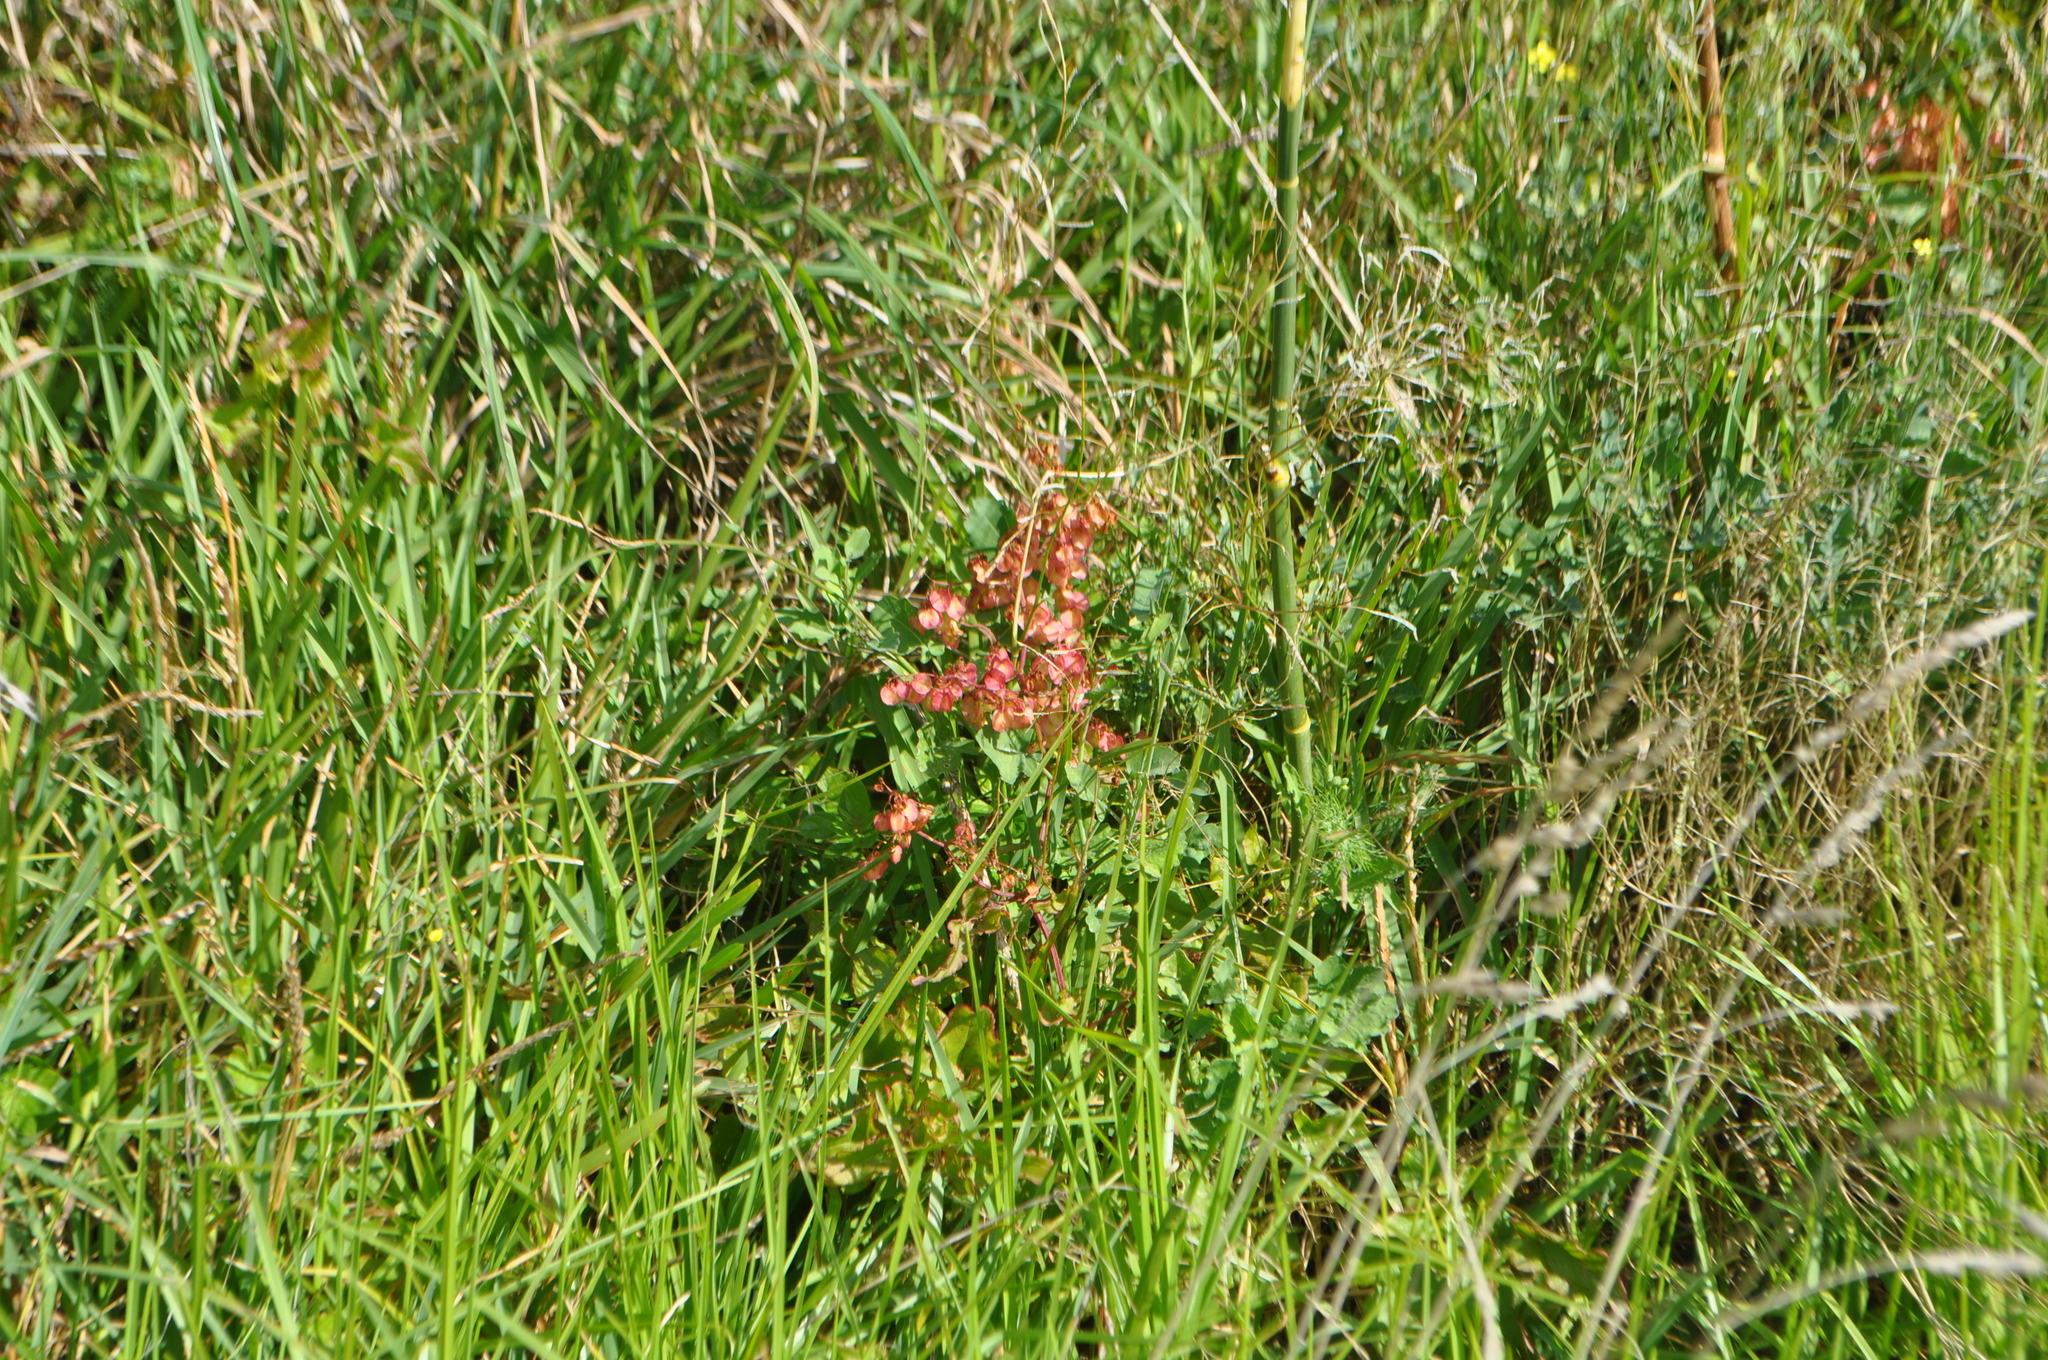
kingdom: Plantae
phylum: Tracheophyta
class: Magnoliopsida
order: Caryophyllales
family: Polygonaceae
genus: Rumex
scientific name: Rumex sagittatus
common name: Climbing dock
